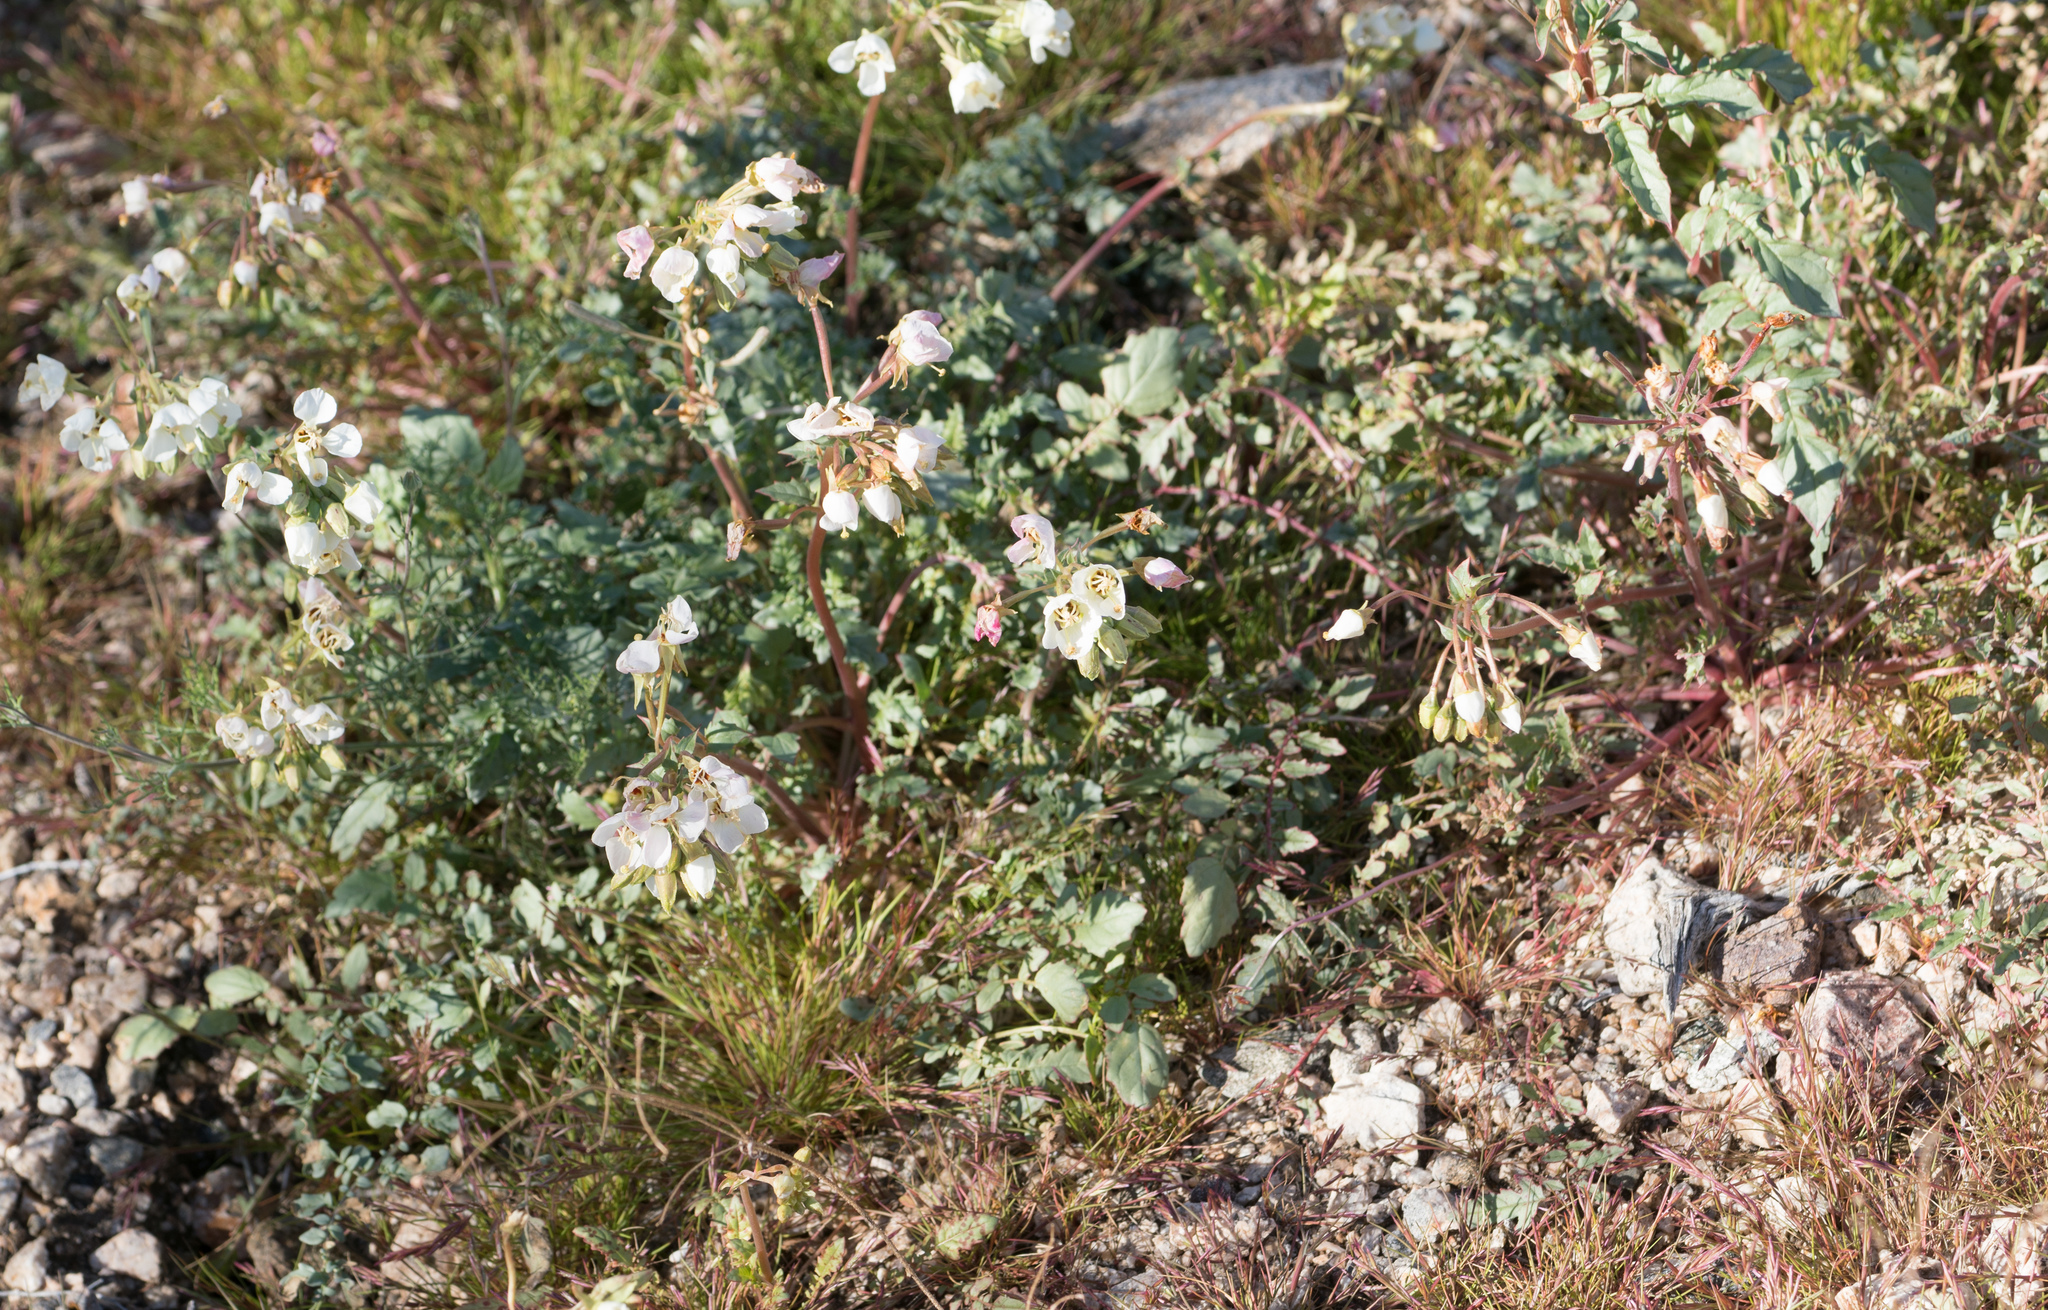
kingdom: Plantae
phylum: Tracheophyta
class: Magnoliopsida
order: Myrtales
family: Onagraceae
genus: Chylismia
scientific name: Chylismia claviformis
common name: Browneyes
